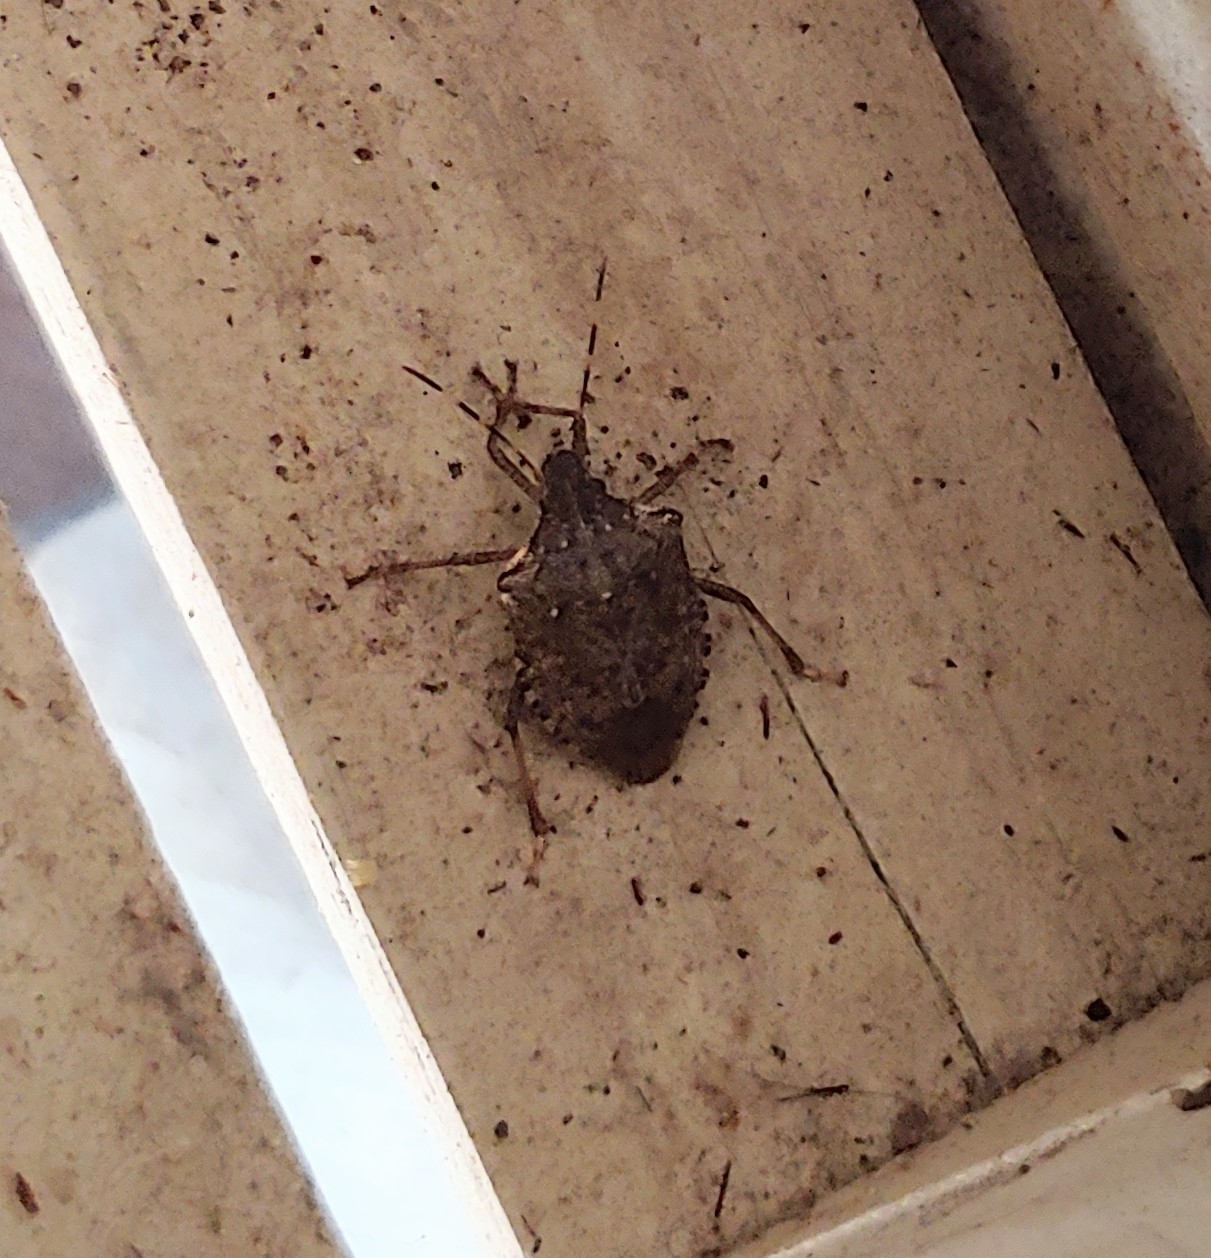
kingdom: Animalia
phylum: Arthropoda
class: Insecta
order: Hemiptera
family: Pentatomidae
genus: Halyomorpha
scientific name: Halyomorpha halys
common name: Brown marmorated stink bug
